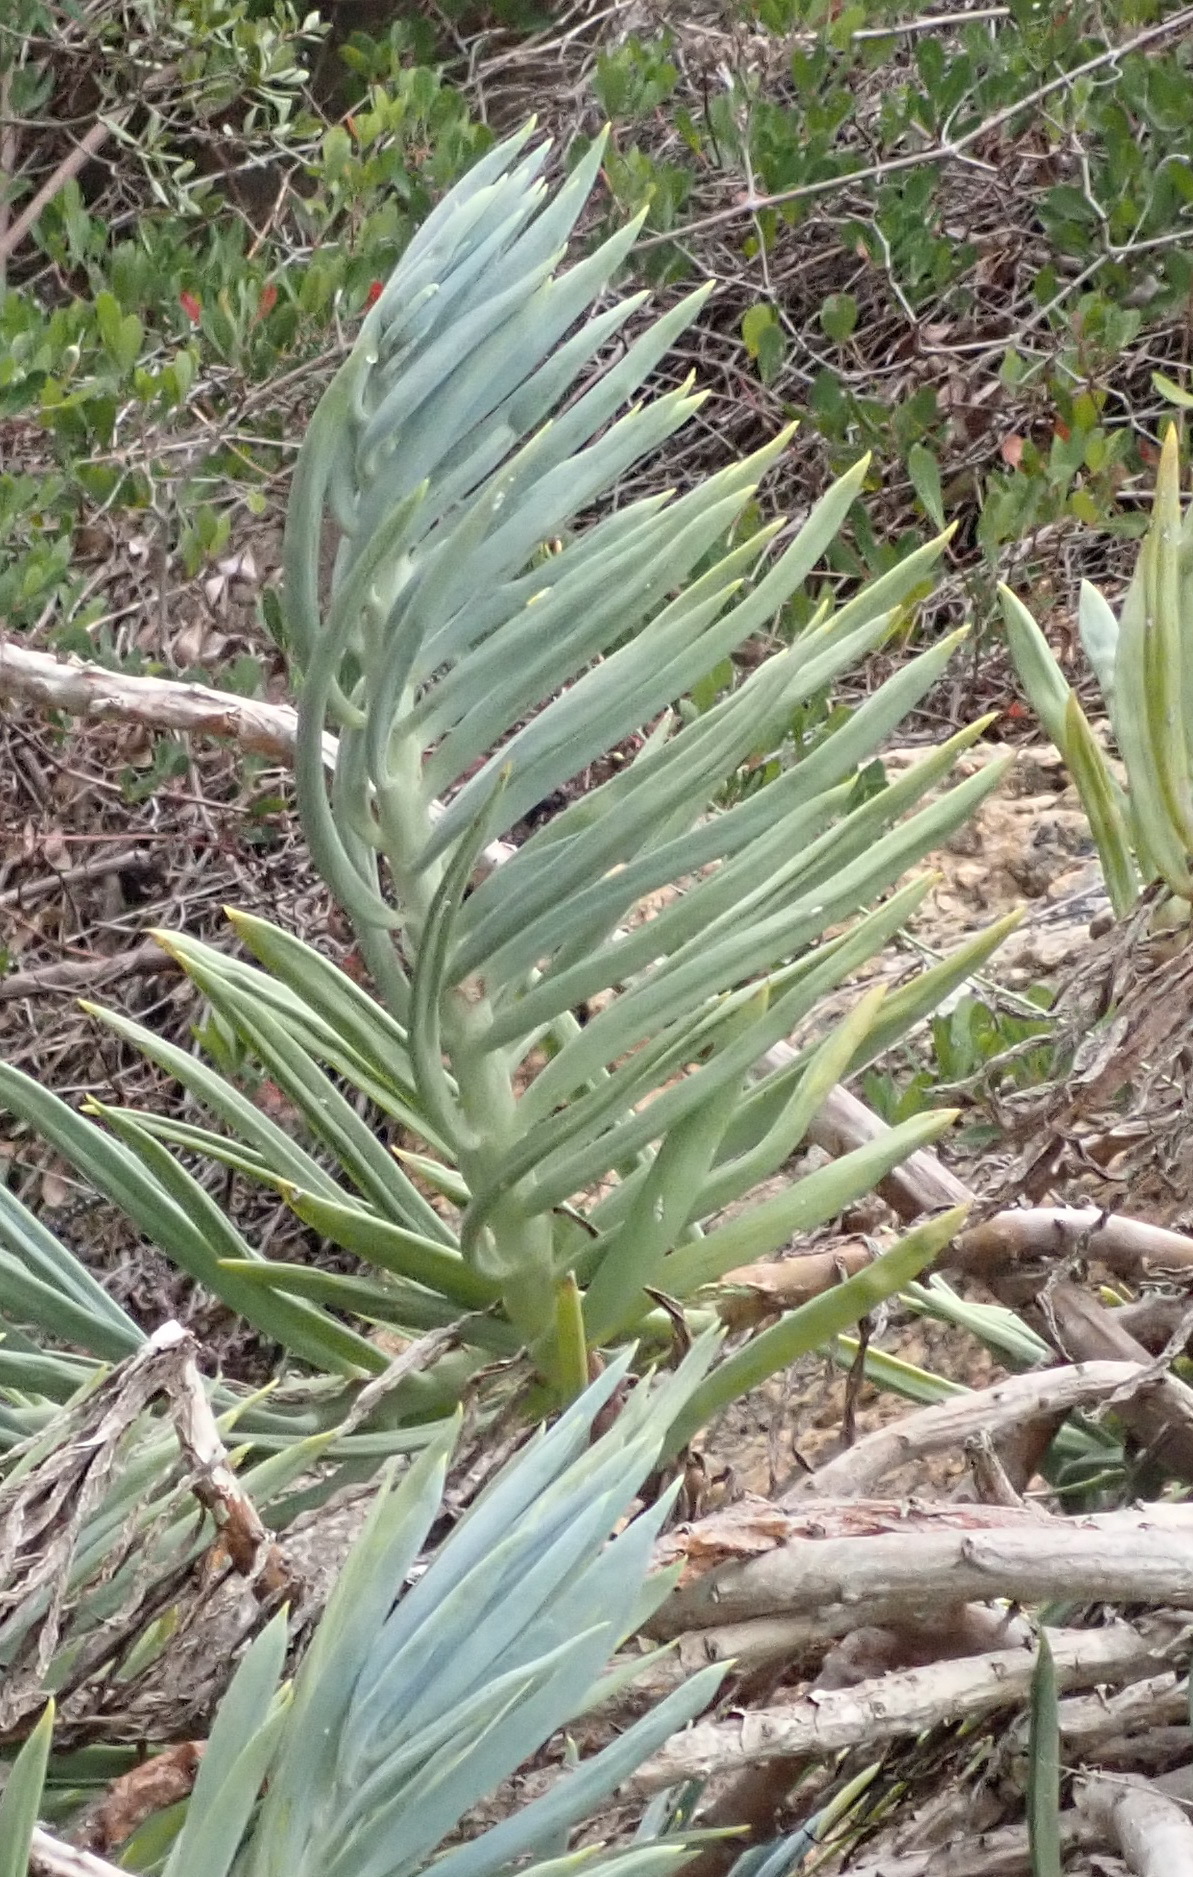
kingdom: Plantae
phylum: Tracheophyta
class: Magnoliopsida
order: Asterales
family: Asteraceae
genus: Curio
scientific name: Curio ficoides
